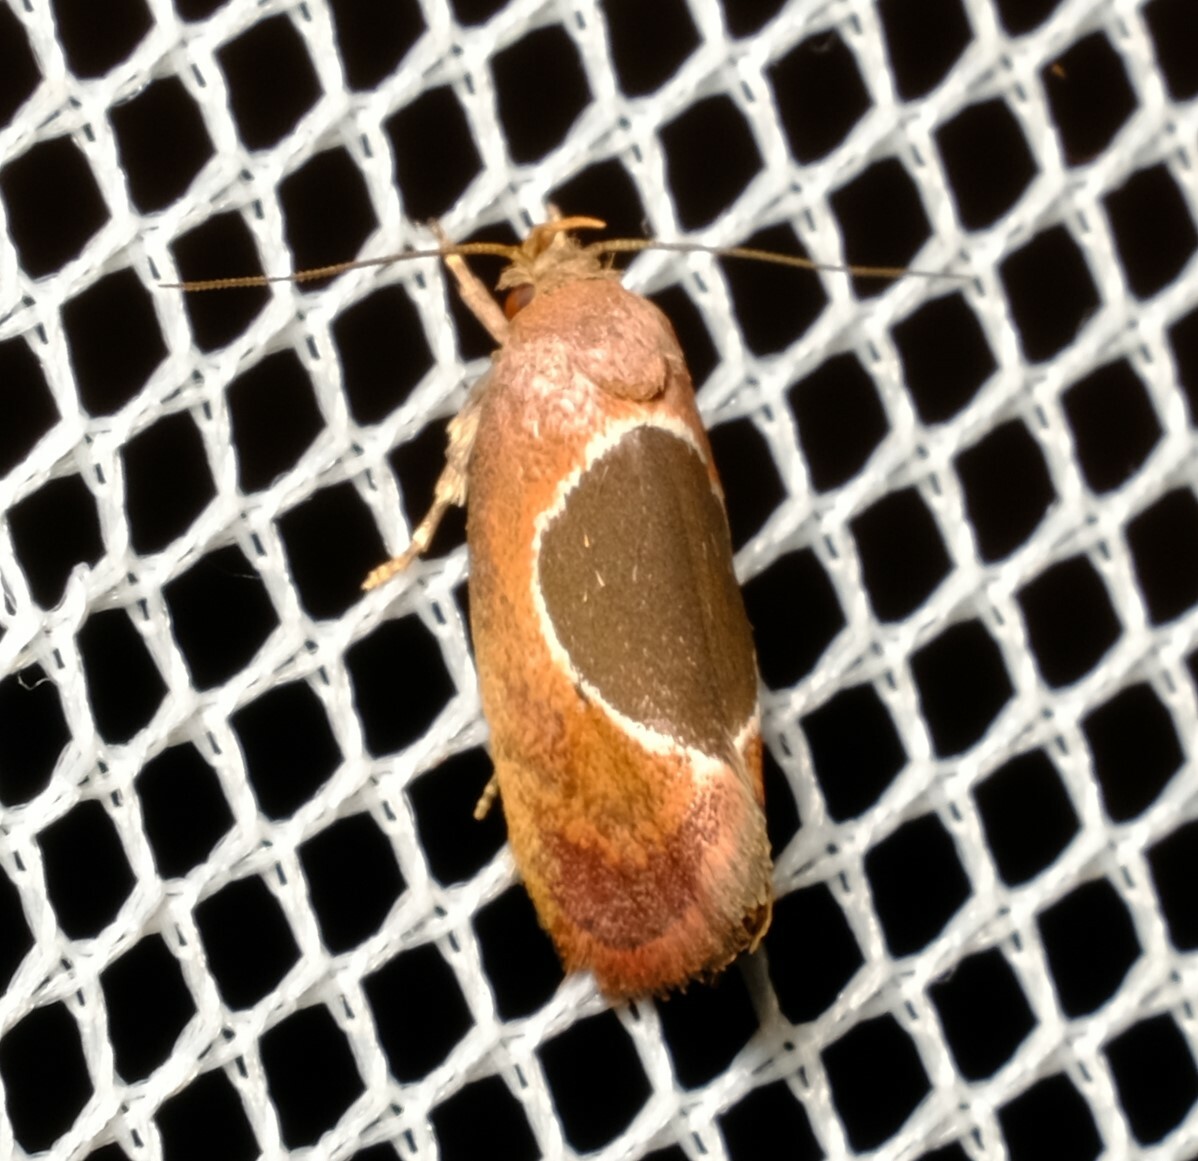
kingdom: Animalia
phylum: Arthropoda
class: Insecta
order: Lepidoptera
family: Oecophoridae
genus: Hoplomorpha
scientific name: Hoplomorpha abalienella
